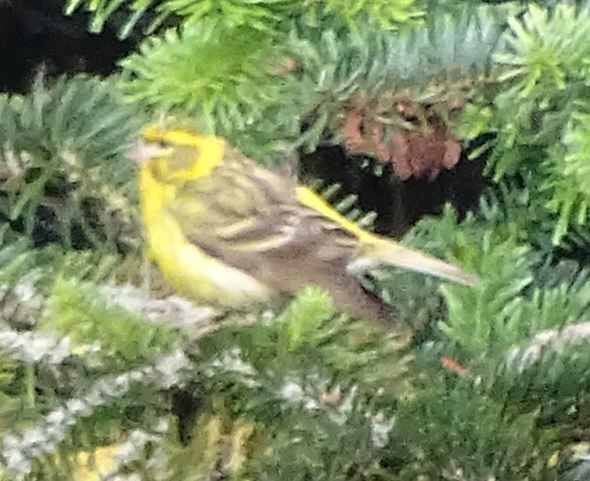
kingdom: Animalia
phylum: Chordata
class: Aves
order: Passeriformes
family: Fringillidae
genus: Serinus
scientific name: Serinus serinus
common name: European serin
